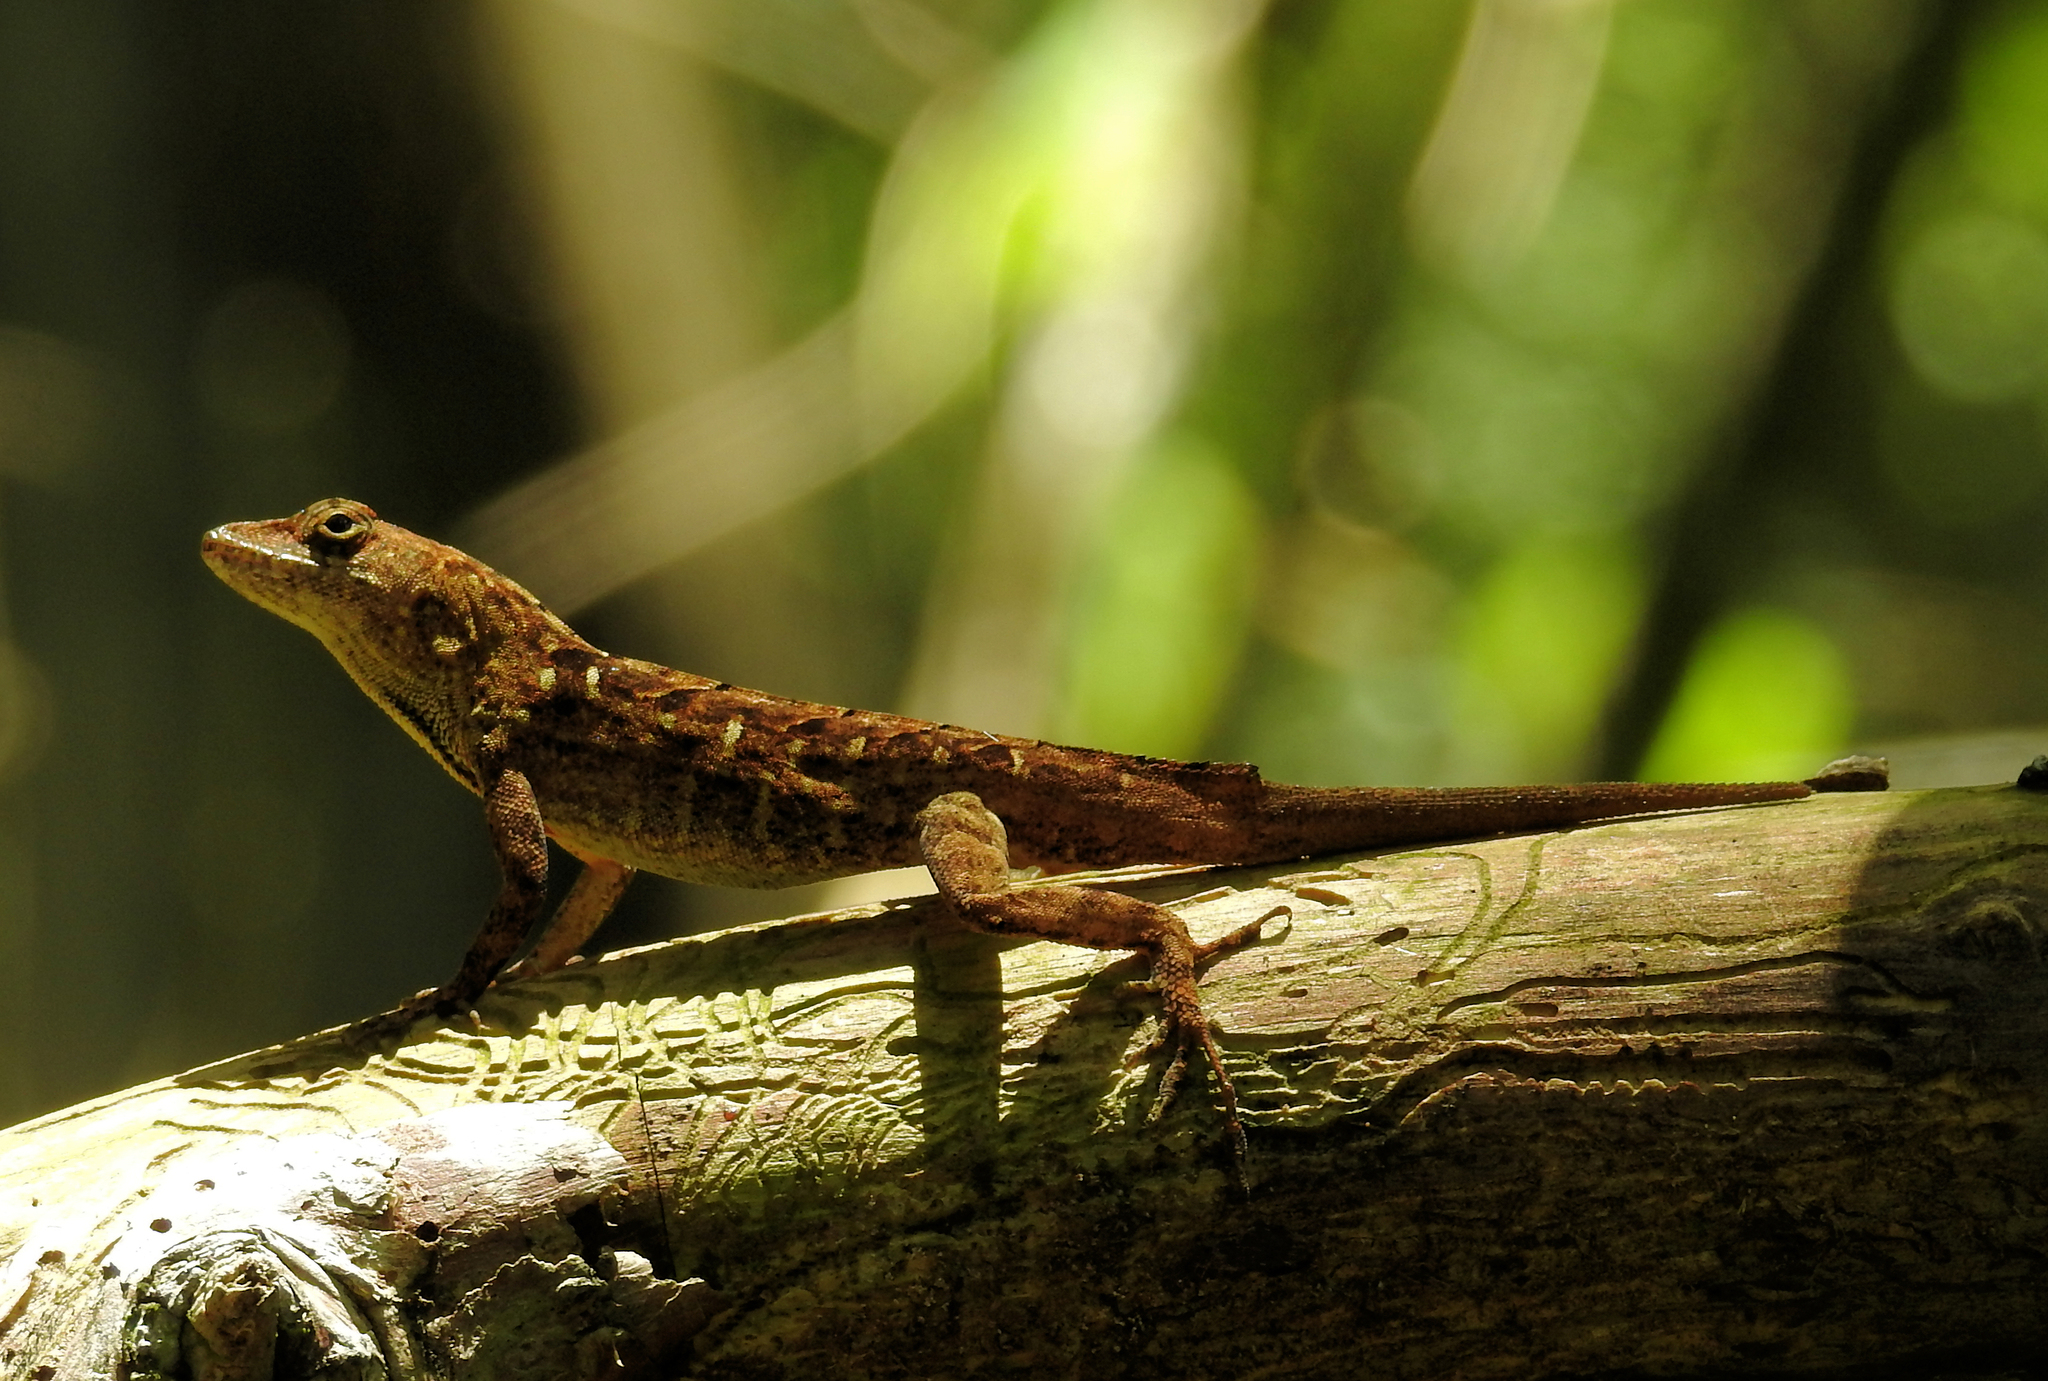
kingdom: Animalia
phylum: Chordata
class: Squamata
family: Dactyloidae
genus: Anolis
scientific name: Anolis sagrei
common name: Brown anole
